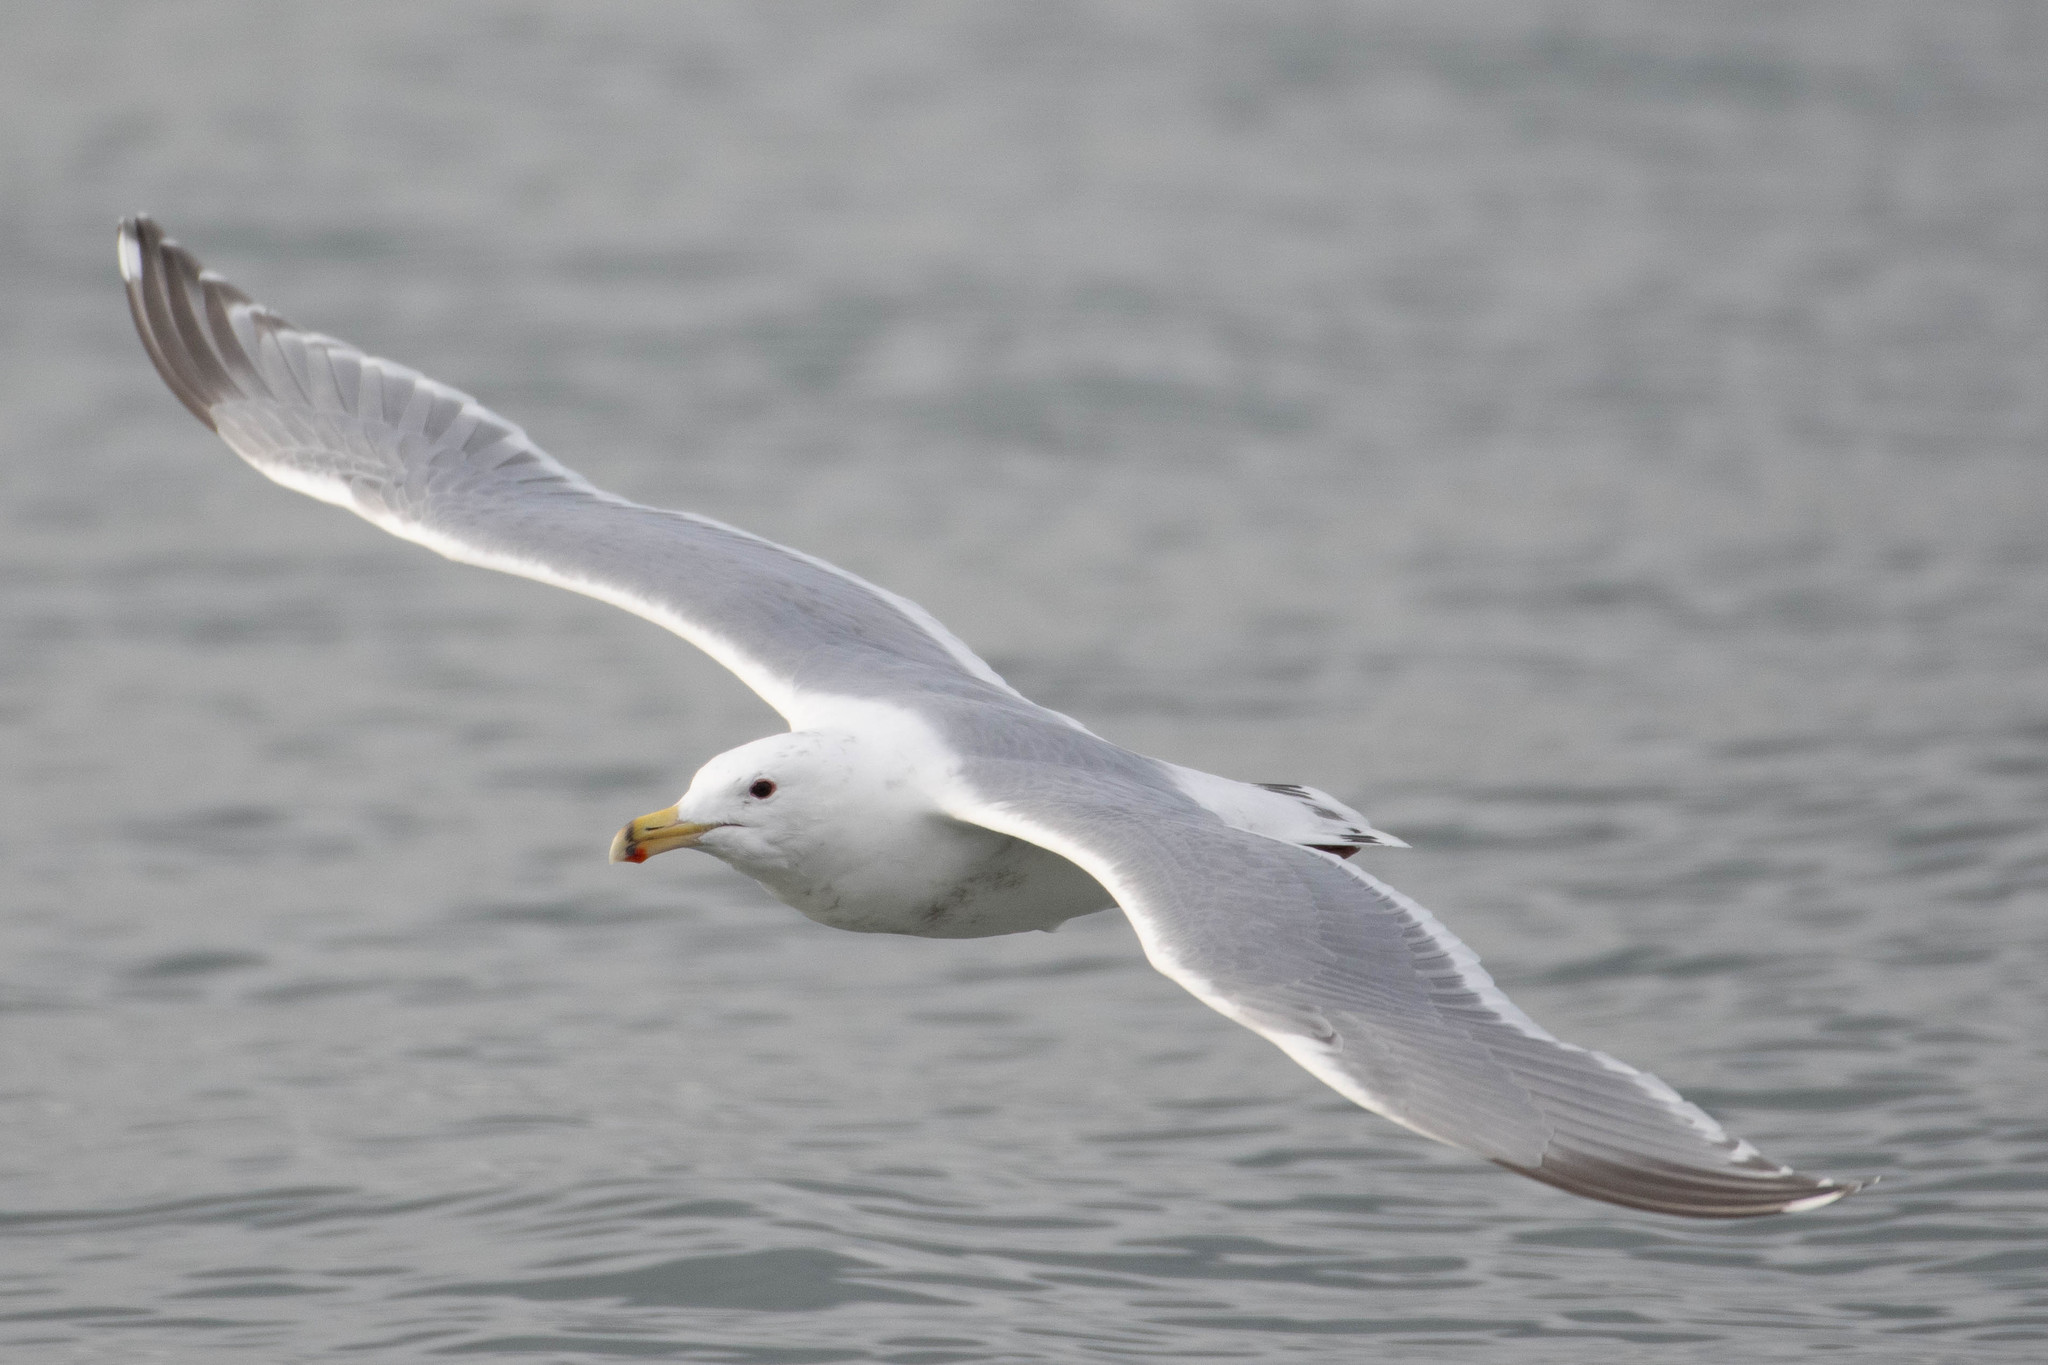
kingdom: Animalia
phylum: Chordata
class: Aves
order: Charadriiformes
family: Laridae
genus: Larus
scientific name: Larus
